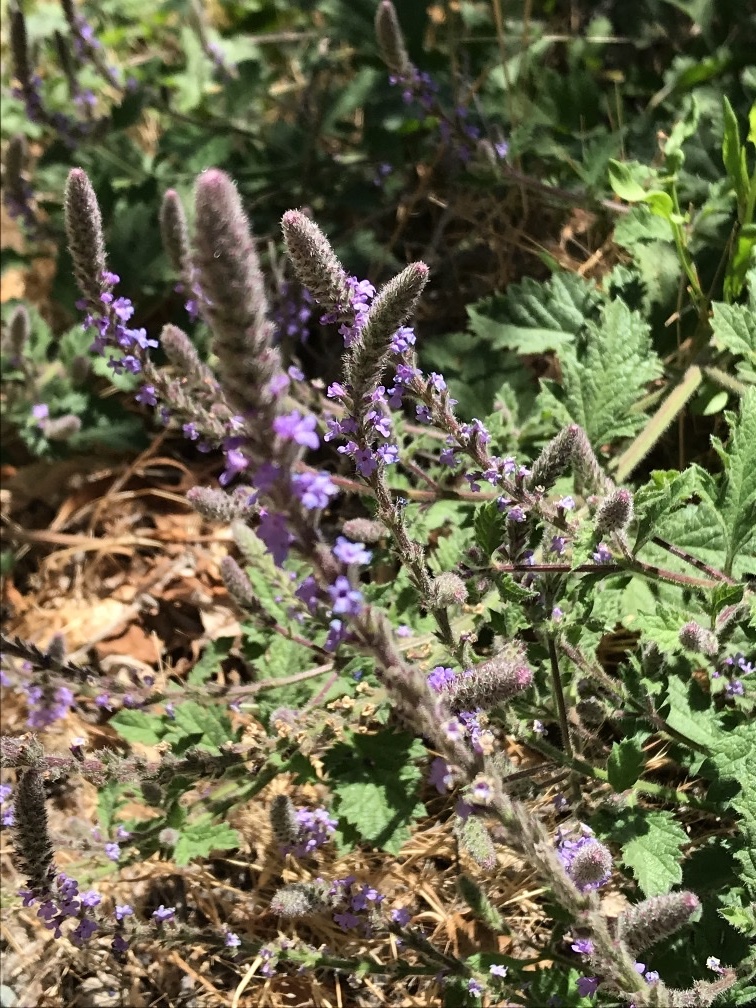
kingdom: Plantae
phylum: Tracheophyta
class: Magnoliopsida
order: Lamiales
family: Verbenaceae
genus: Verbena
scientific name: Verbena lasiostachys
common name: Vervain
